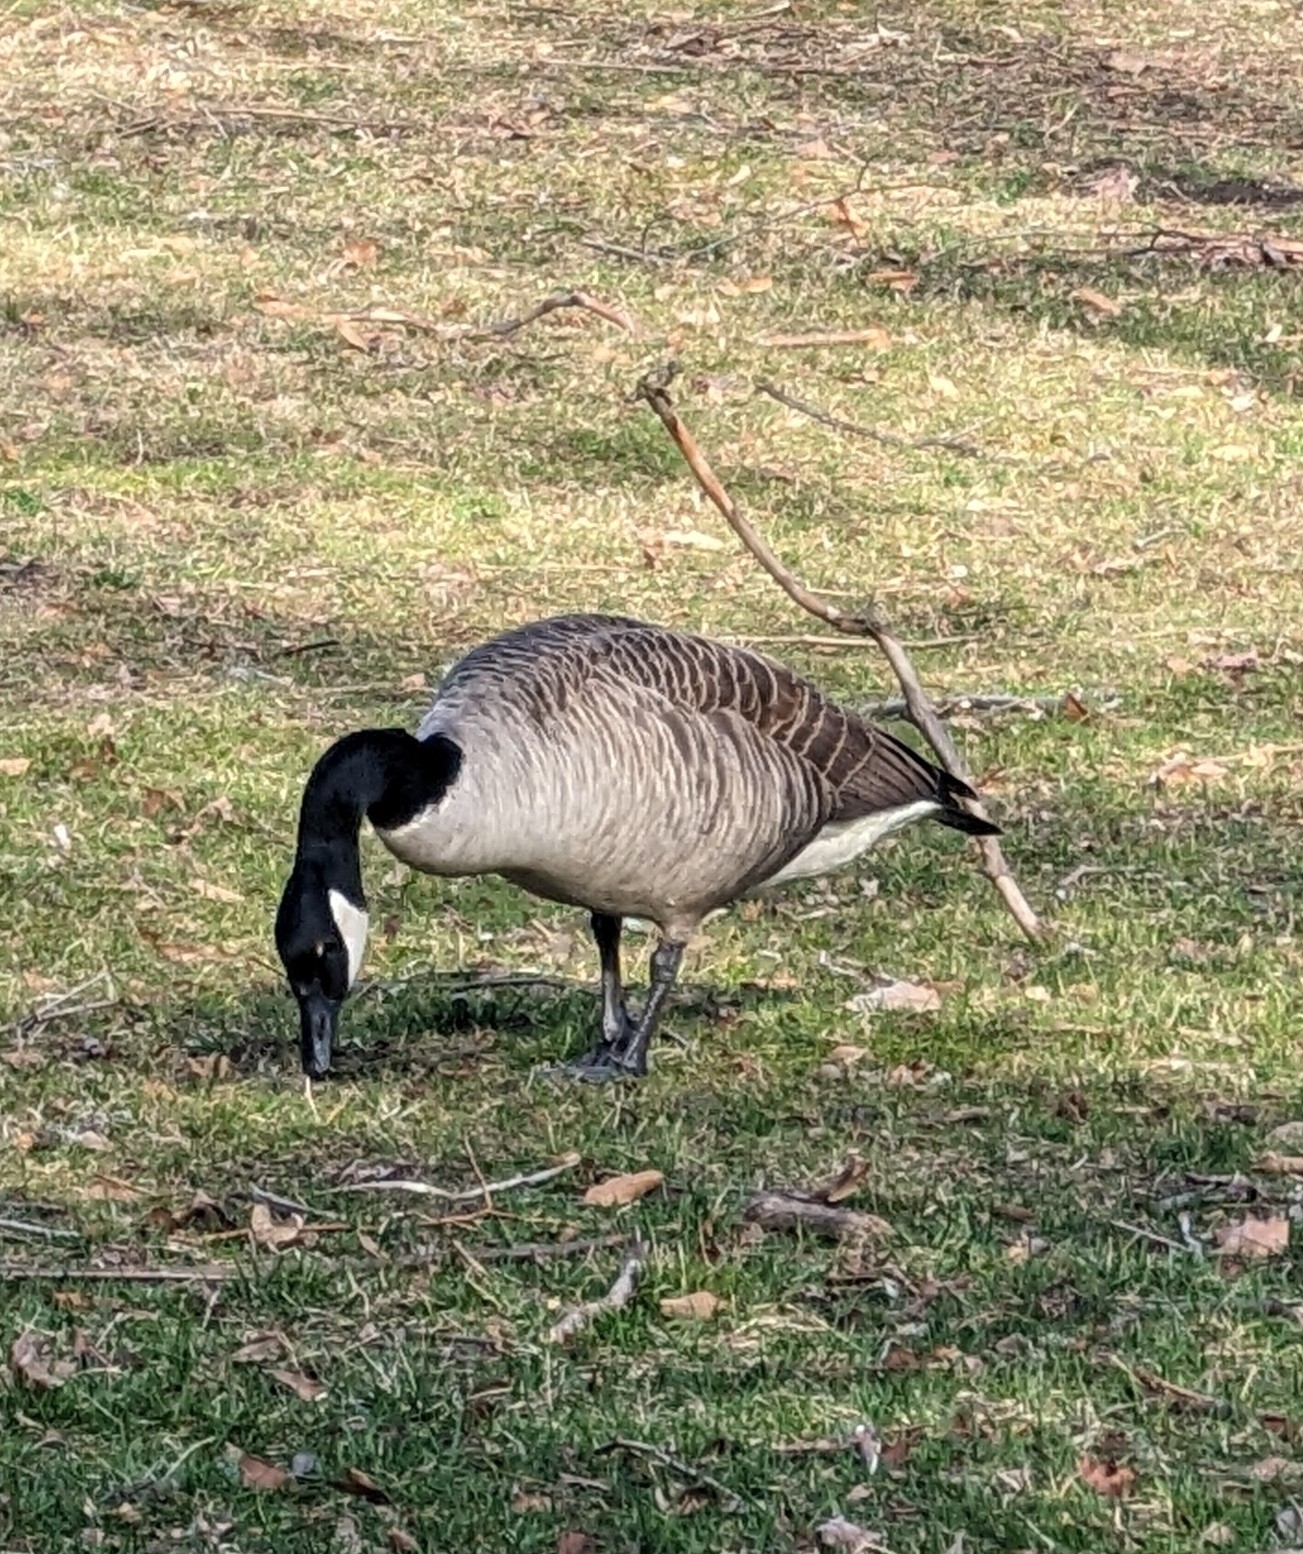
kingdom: Animalia
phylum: Chordata
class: Aves
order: Anseriformes
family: Anatidae
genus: Branta
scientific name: Branta canadensis
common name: Canada goose
